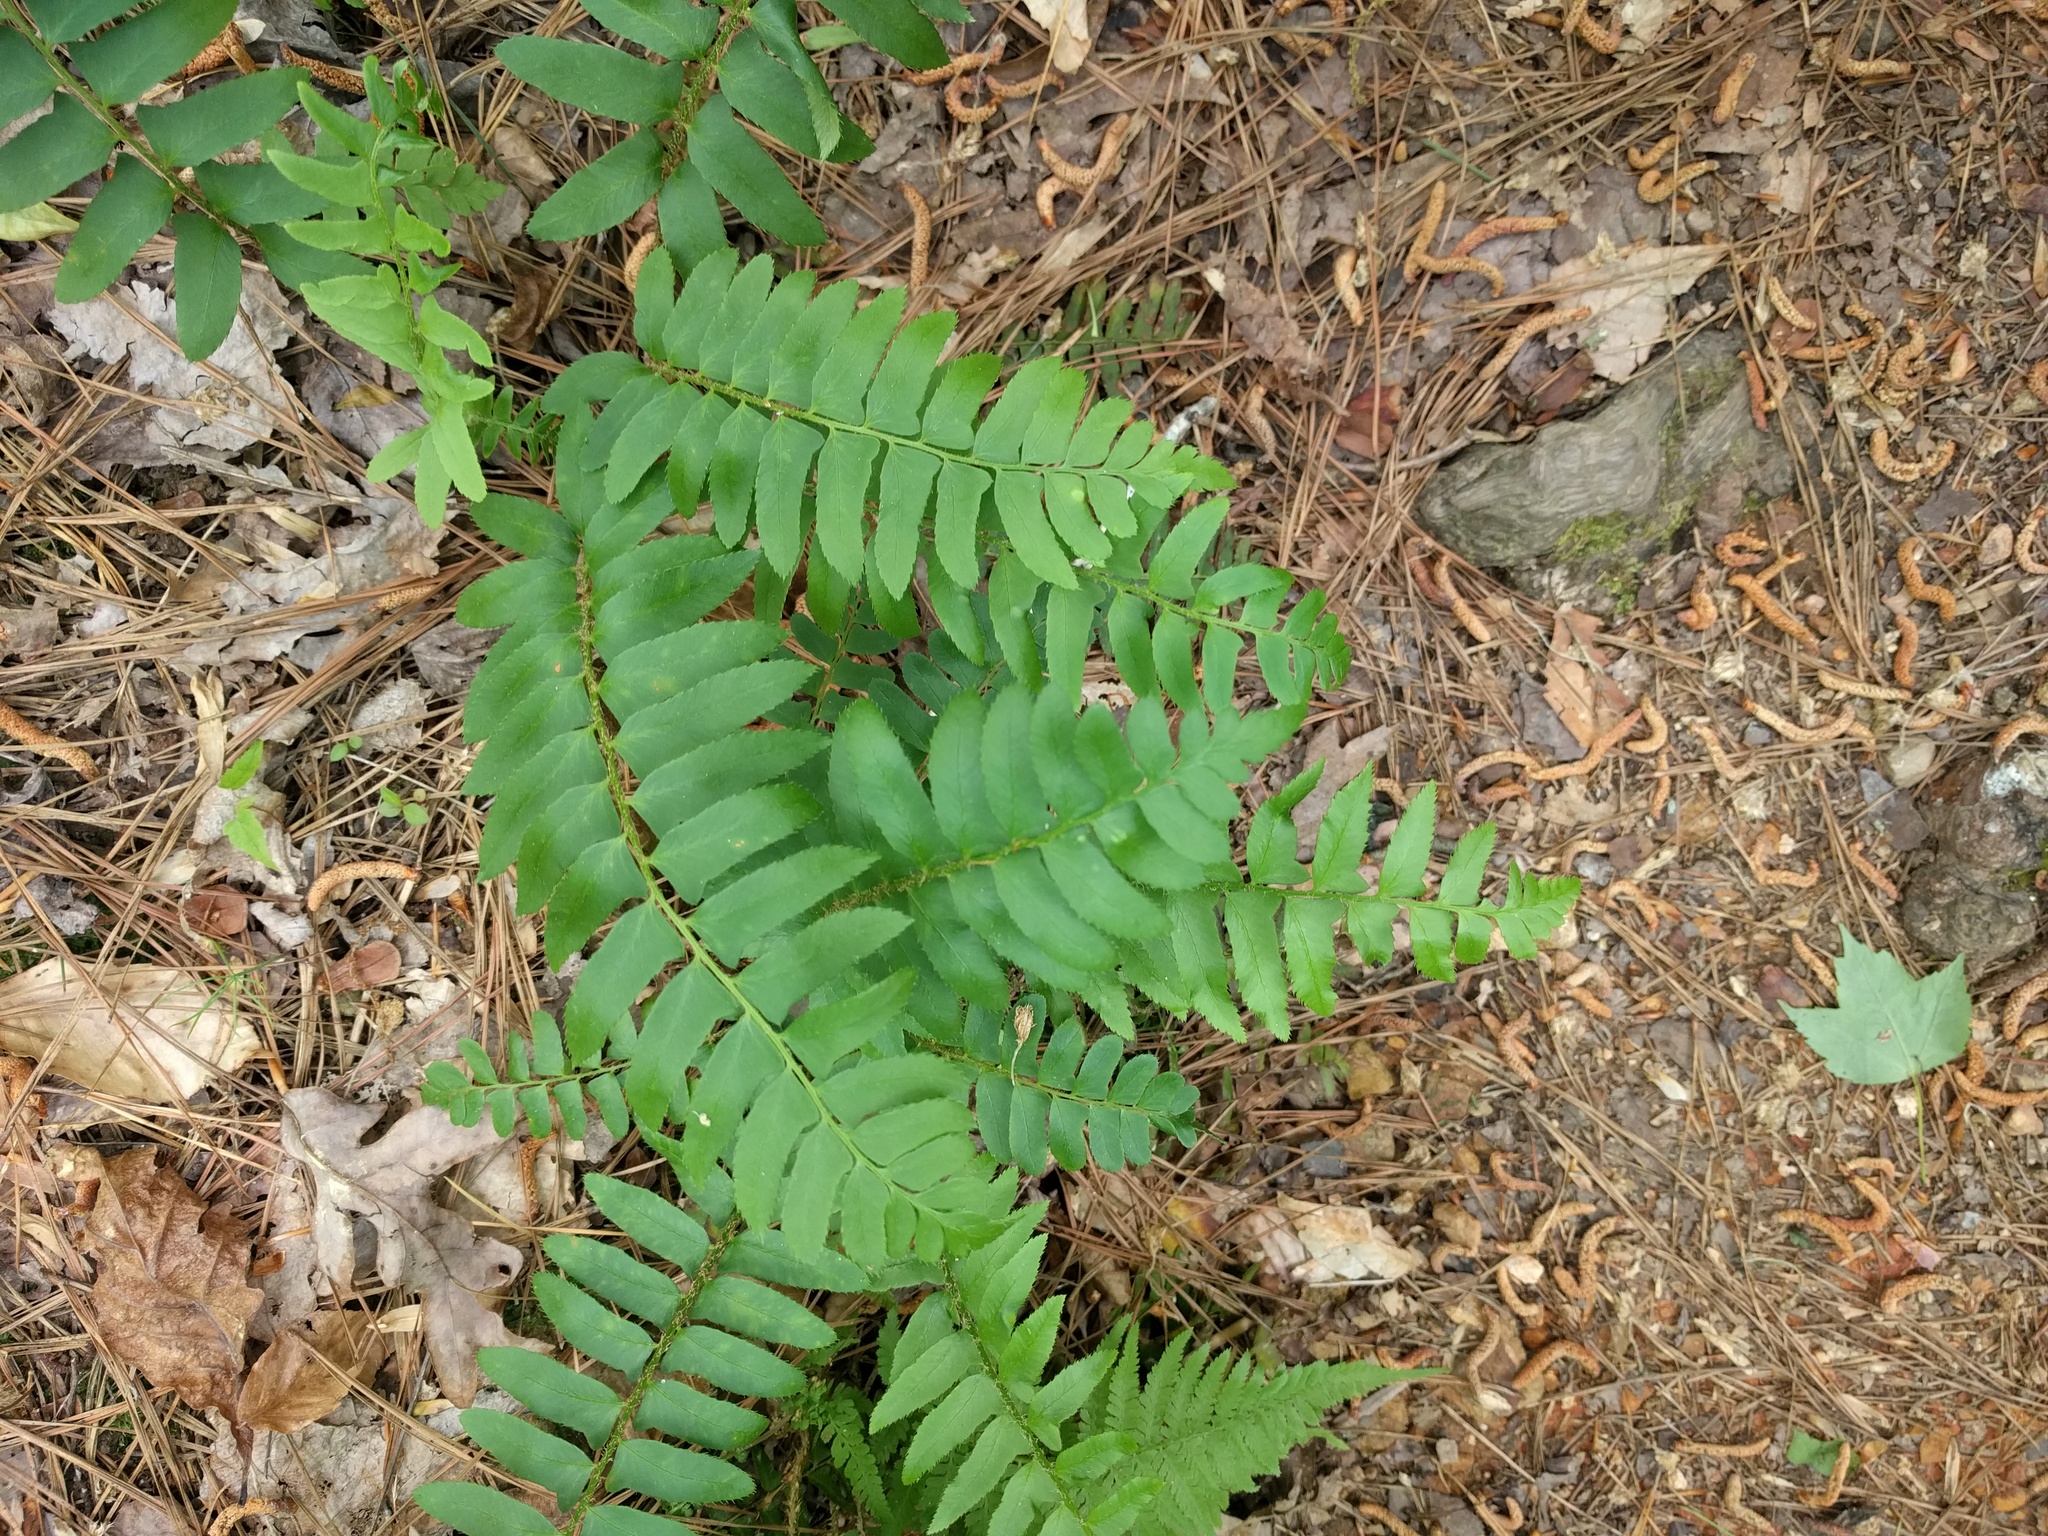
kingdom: Plantae
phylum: Tracheophyta
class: Polypodiopsida
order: Polypodiales
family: Dryopteridaceae
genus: Polystichum
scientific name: Polystichum acrostichoides
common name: Christmas fern
